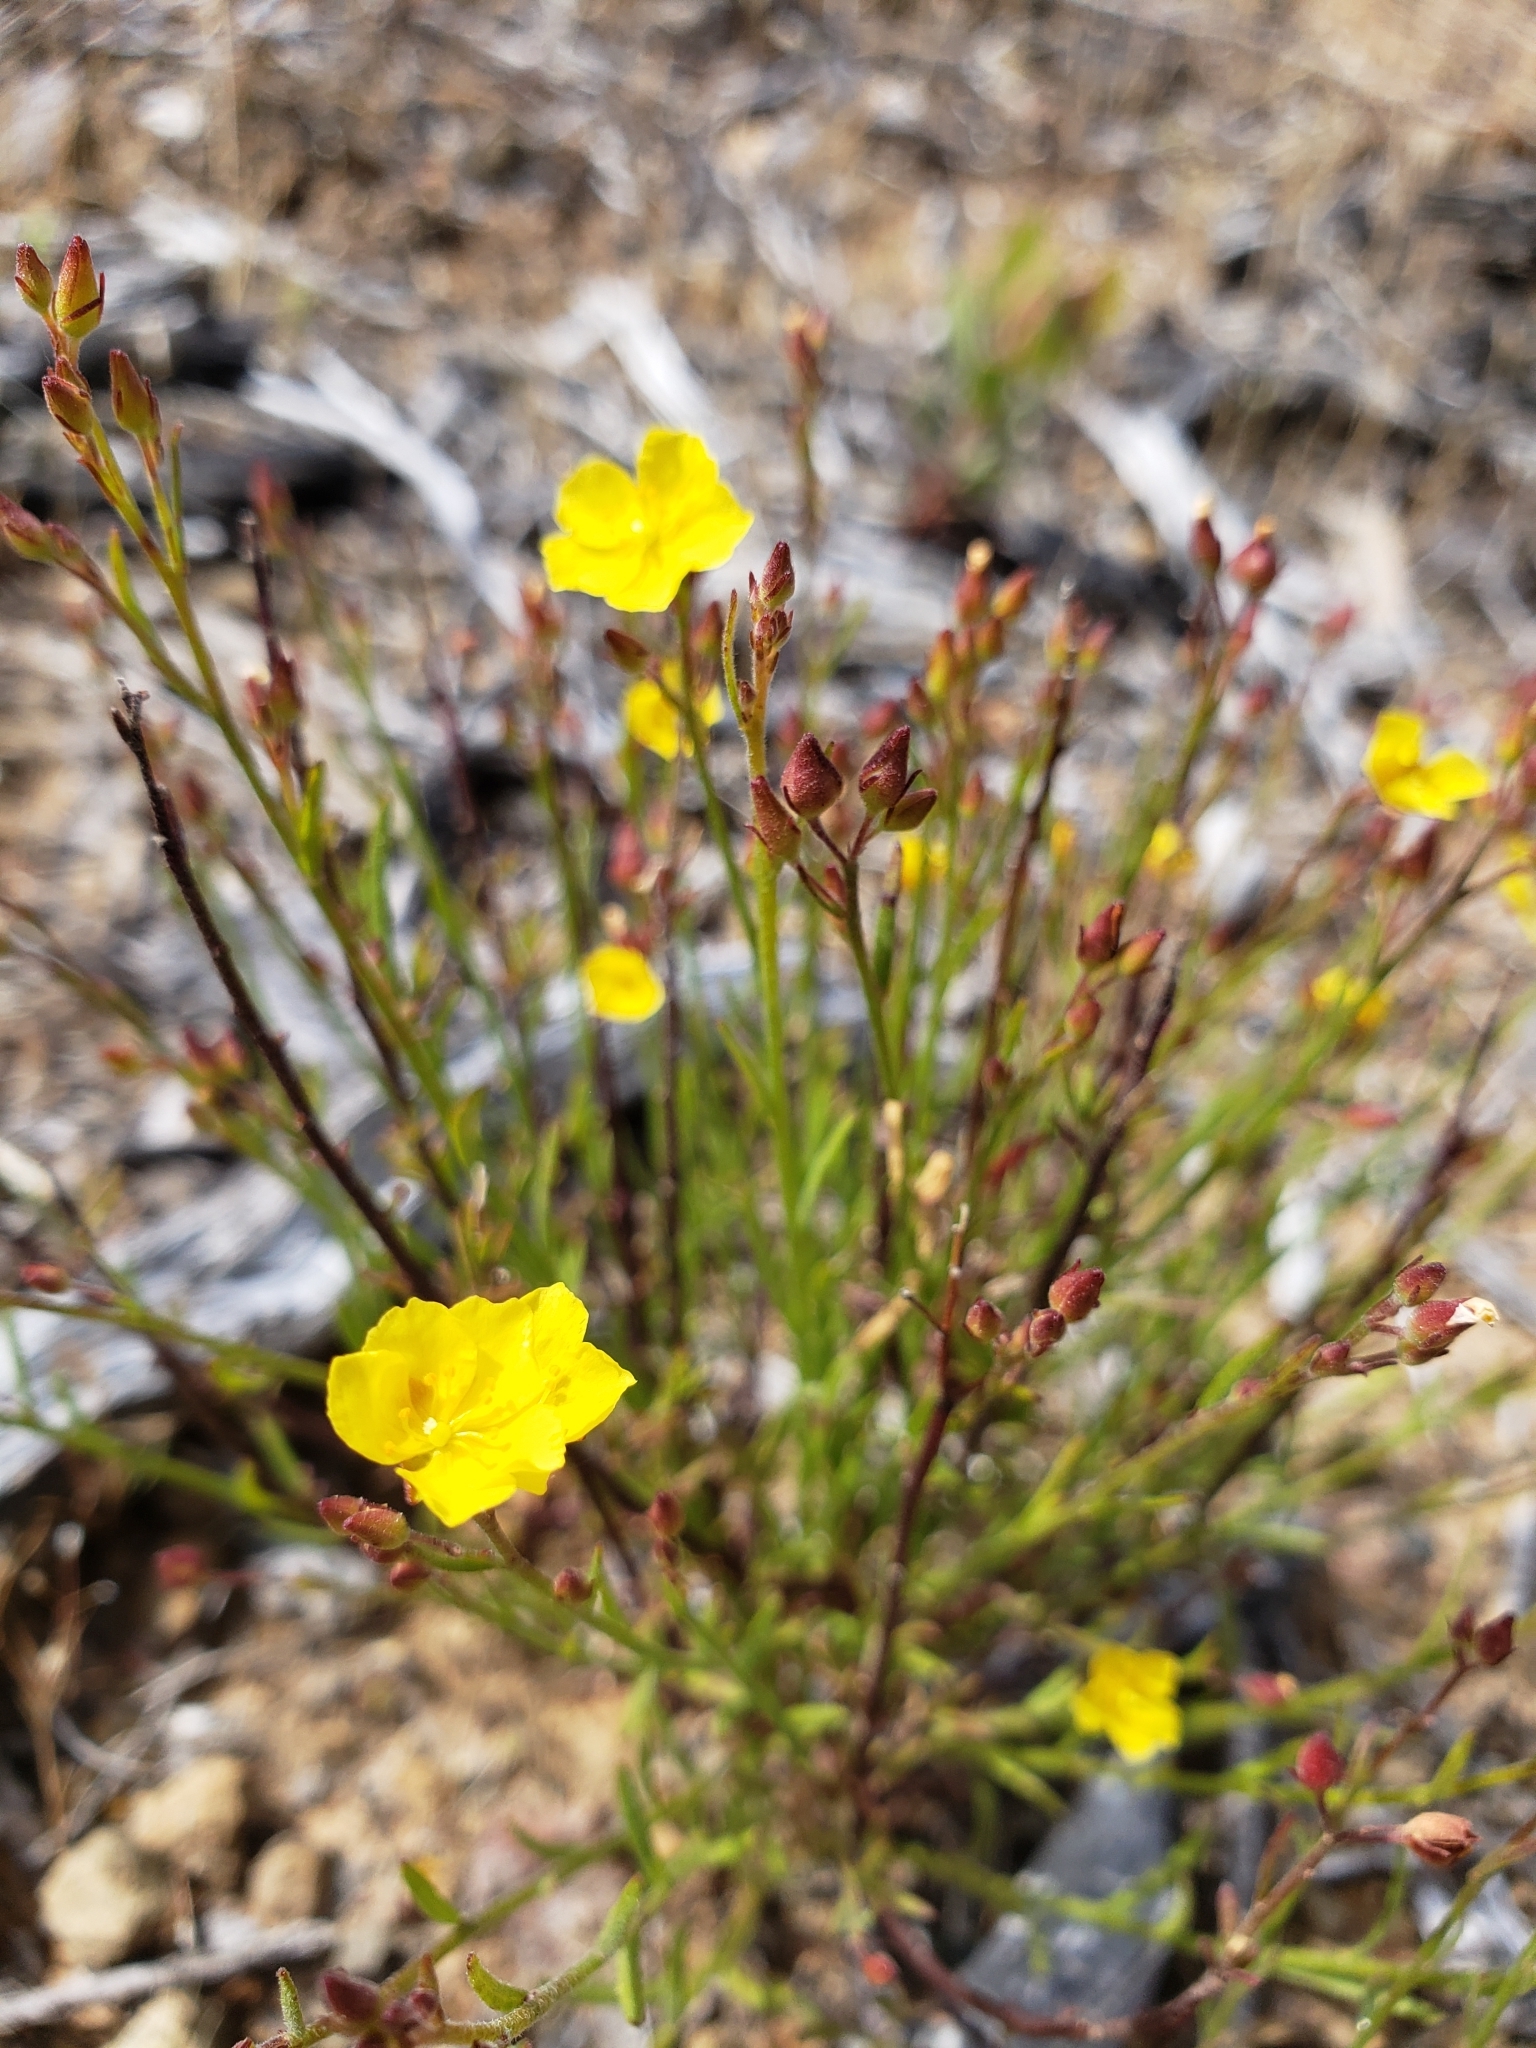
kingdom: Plantae
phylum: Tracheophyta
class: Magnoliopsida
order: Malvales
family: Cistaceae
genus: Crocanthemum
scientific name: Crocanthemum scoparium
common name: Broom-rose
